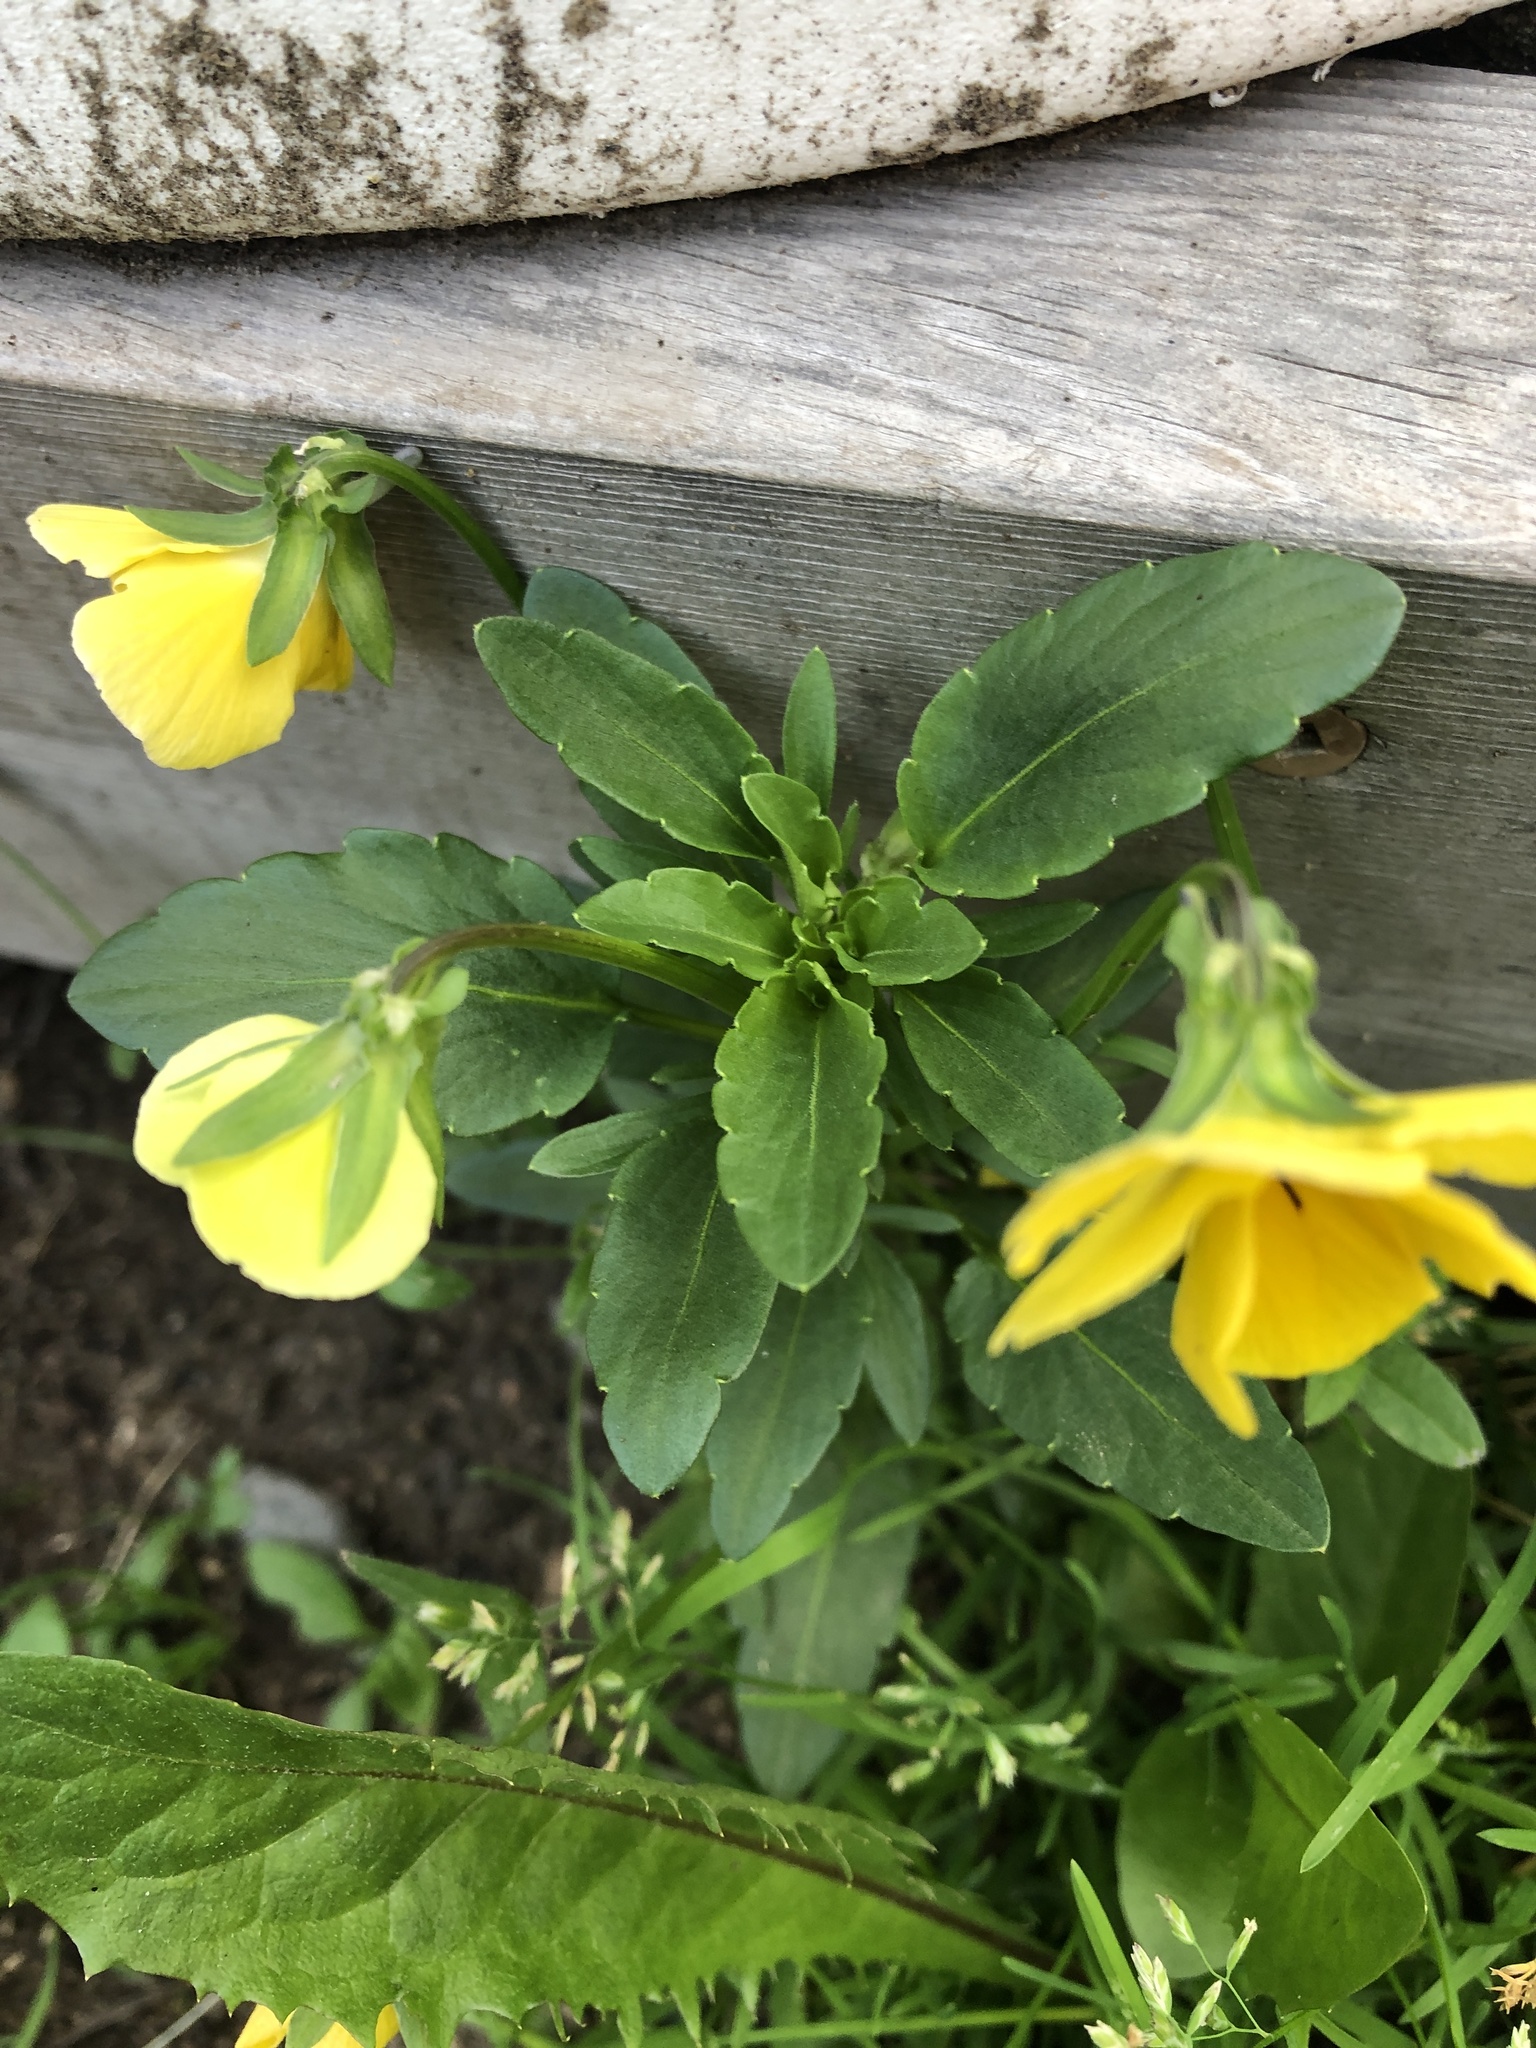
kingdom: Plantae
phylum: Tracheophyta
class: Magnoliopsida
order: Malpighiales
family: Violaceae
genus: Viola
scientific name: Viola williamsii
